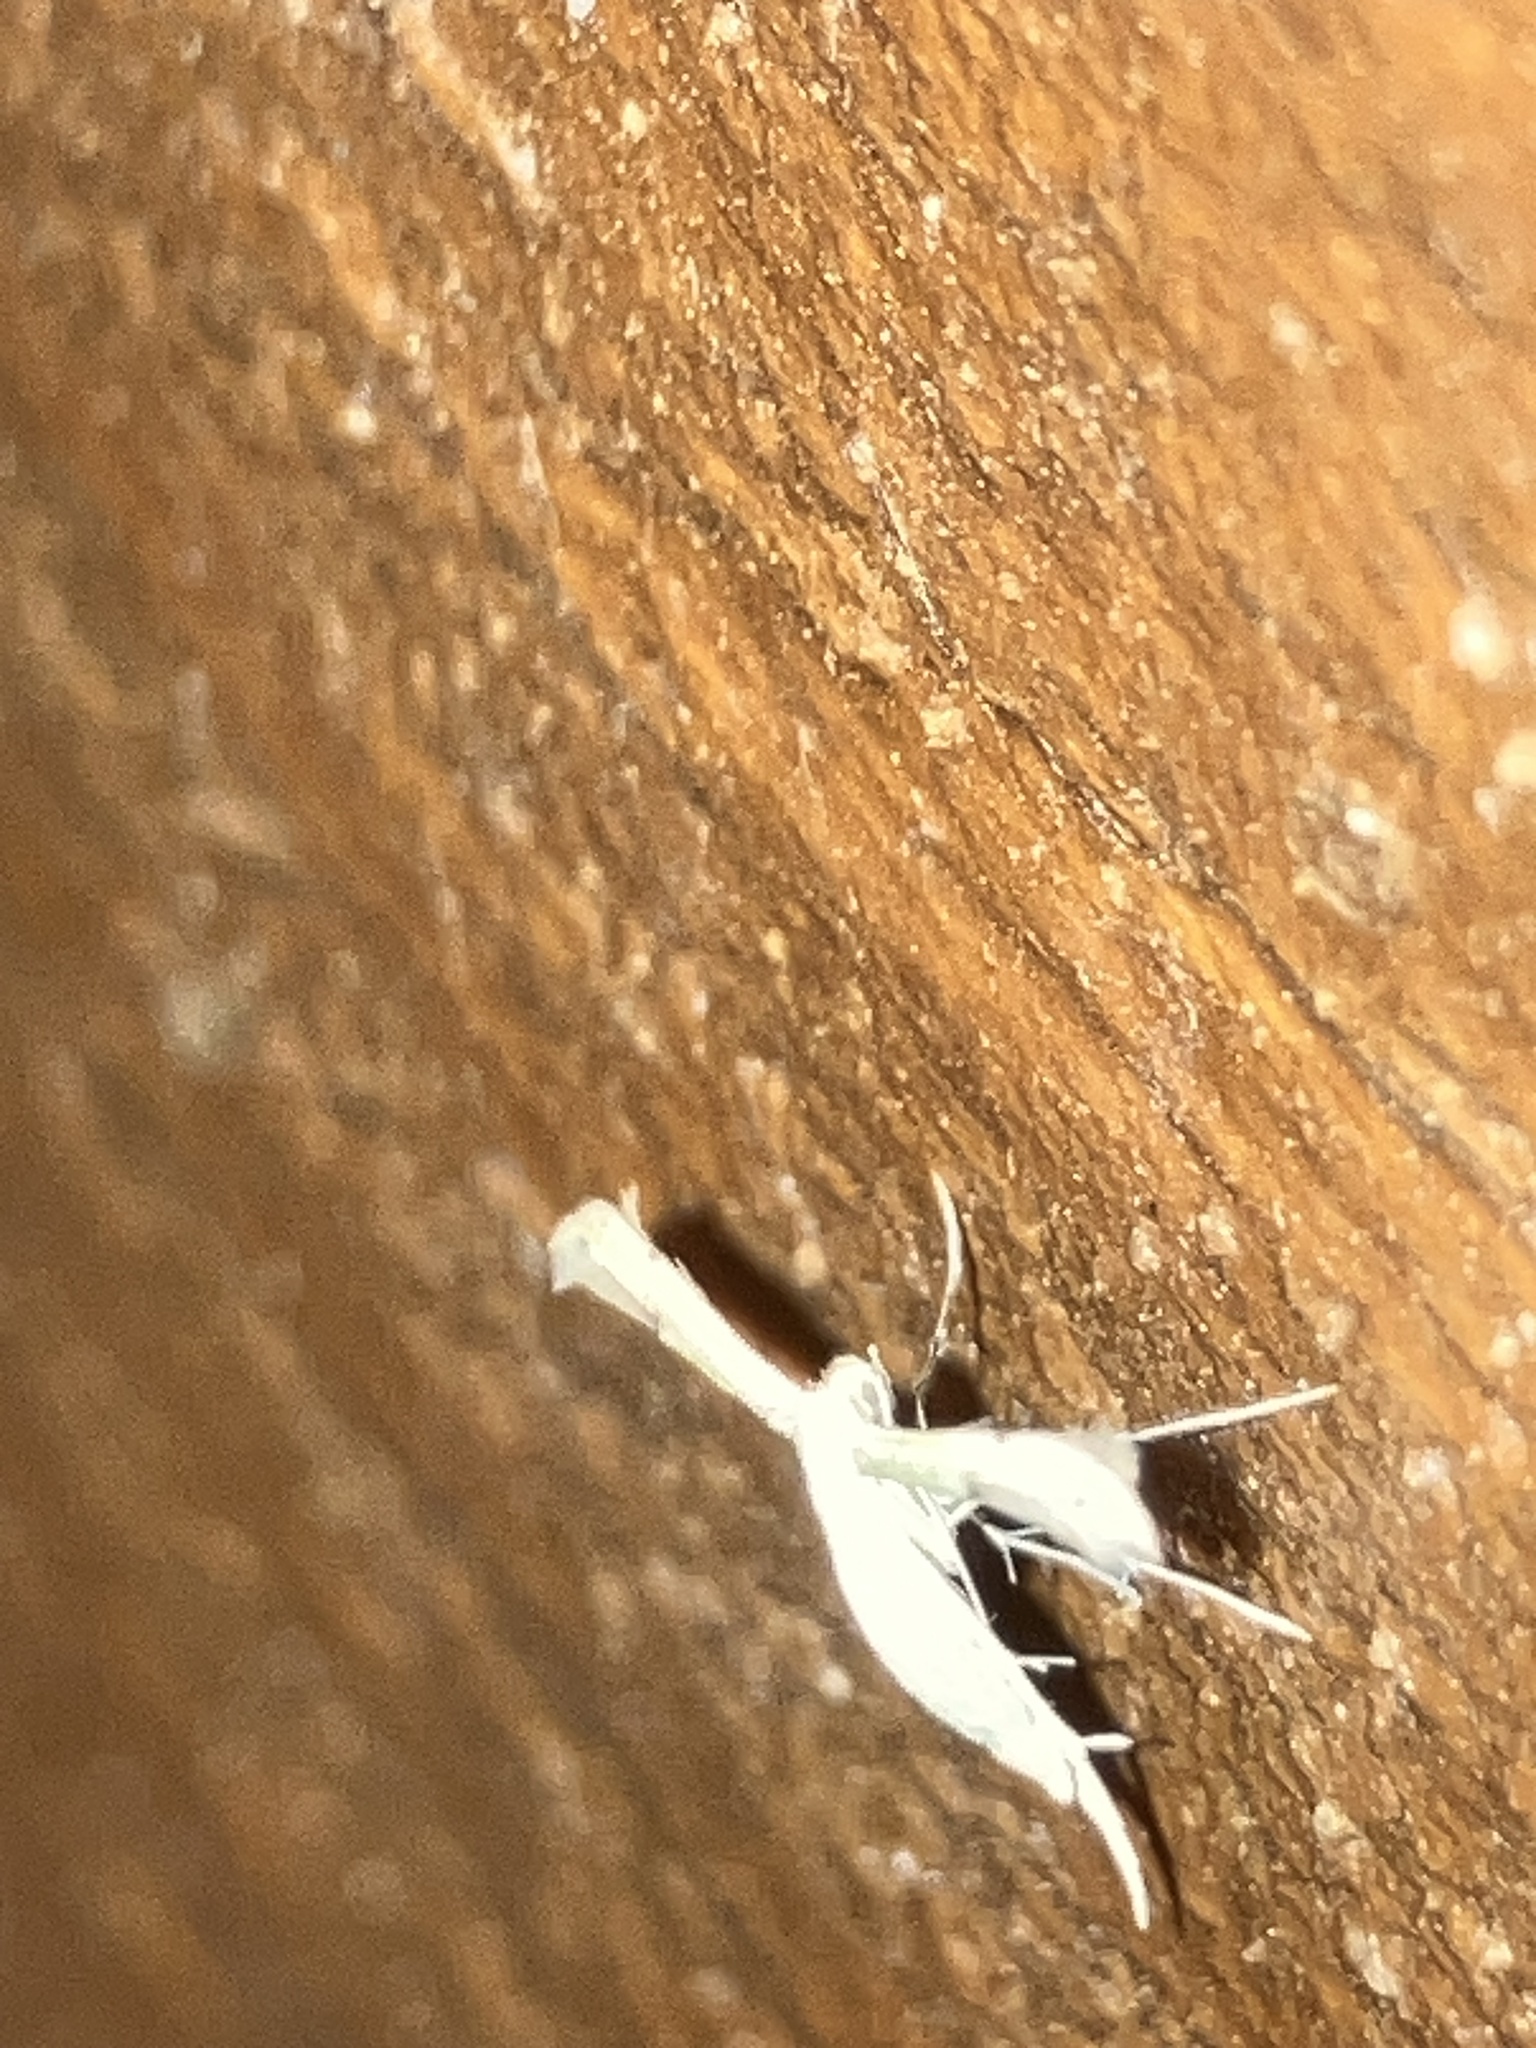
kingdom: Animalia
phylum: Arthropoda
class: Insecta
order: Lepidoptera
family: Pterophoridae
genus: Adaina
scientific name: Adaina
